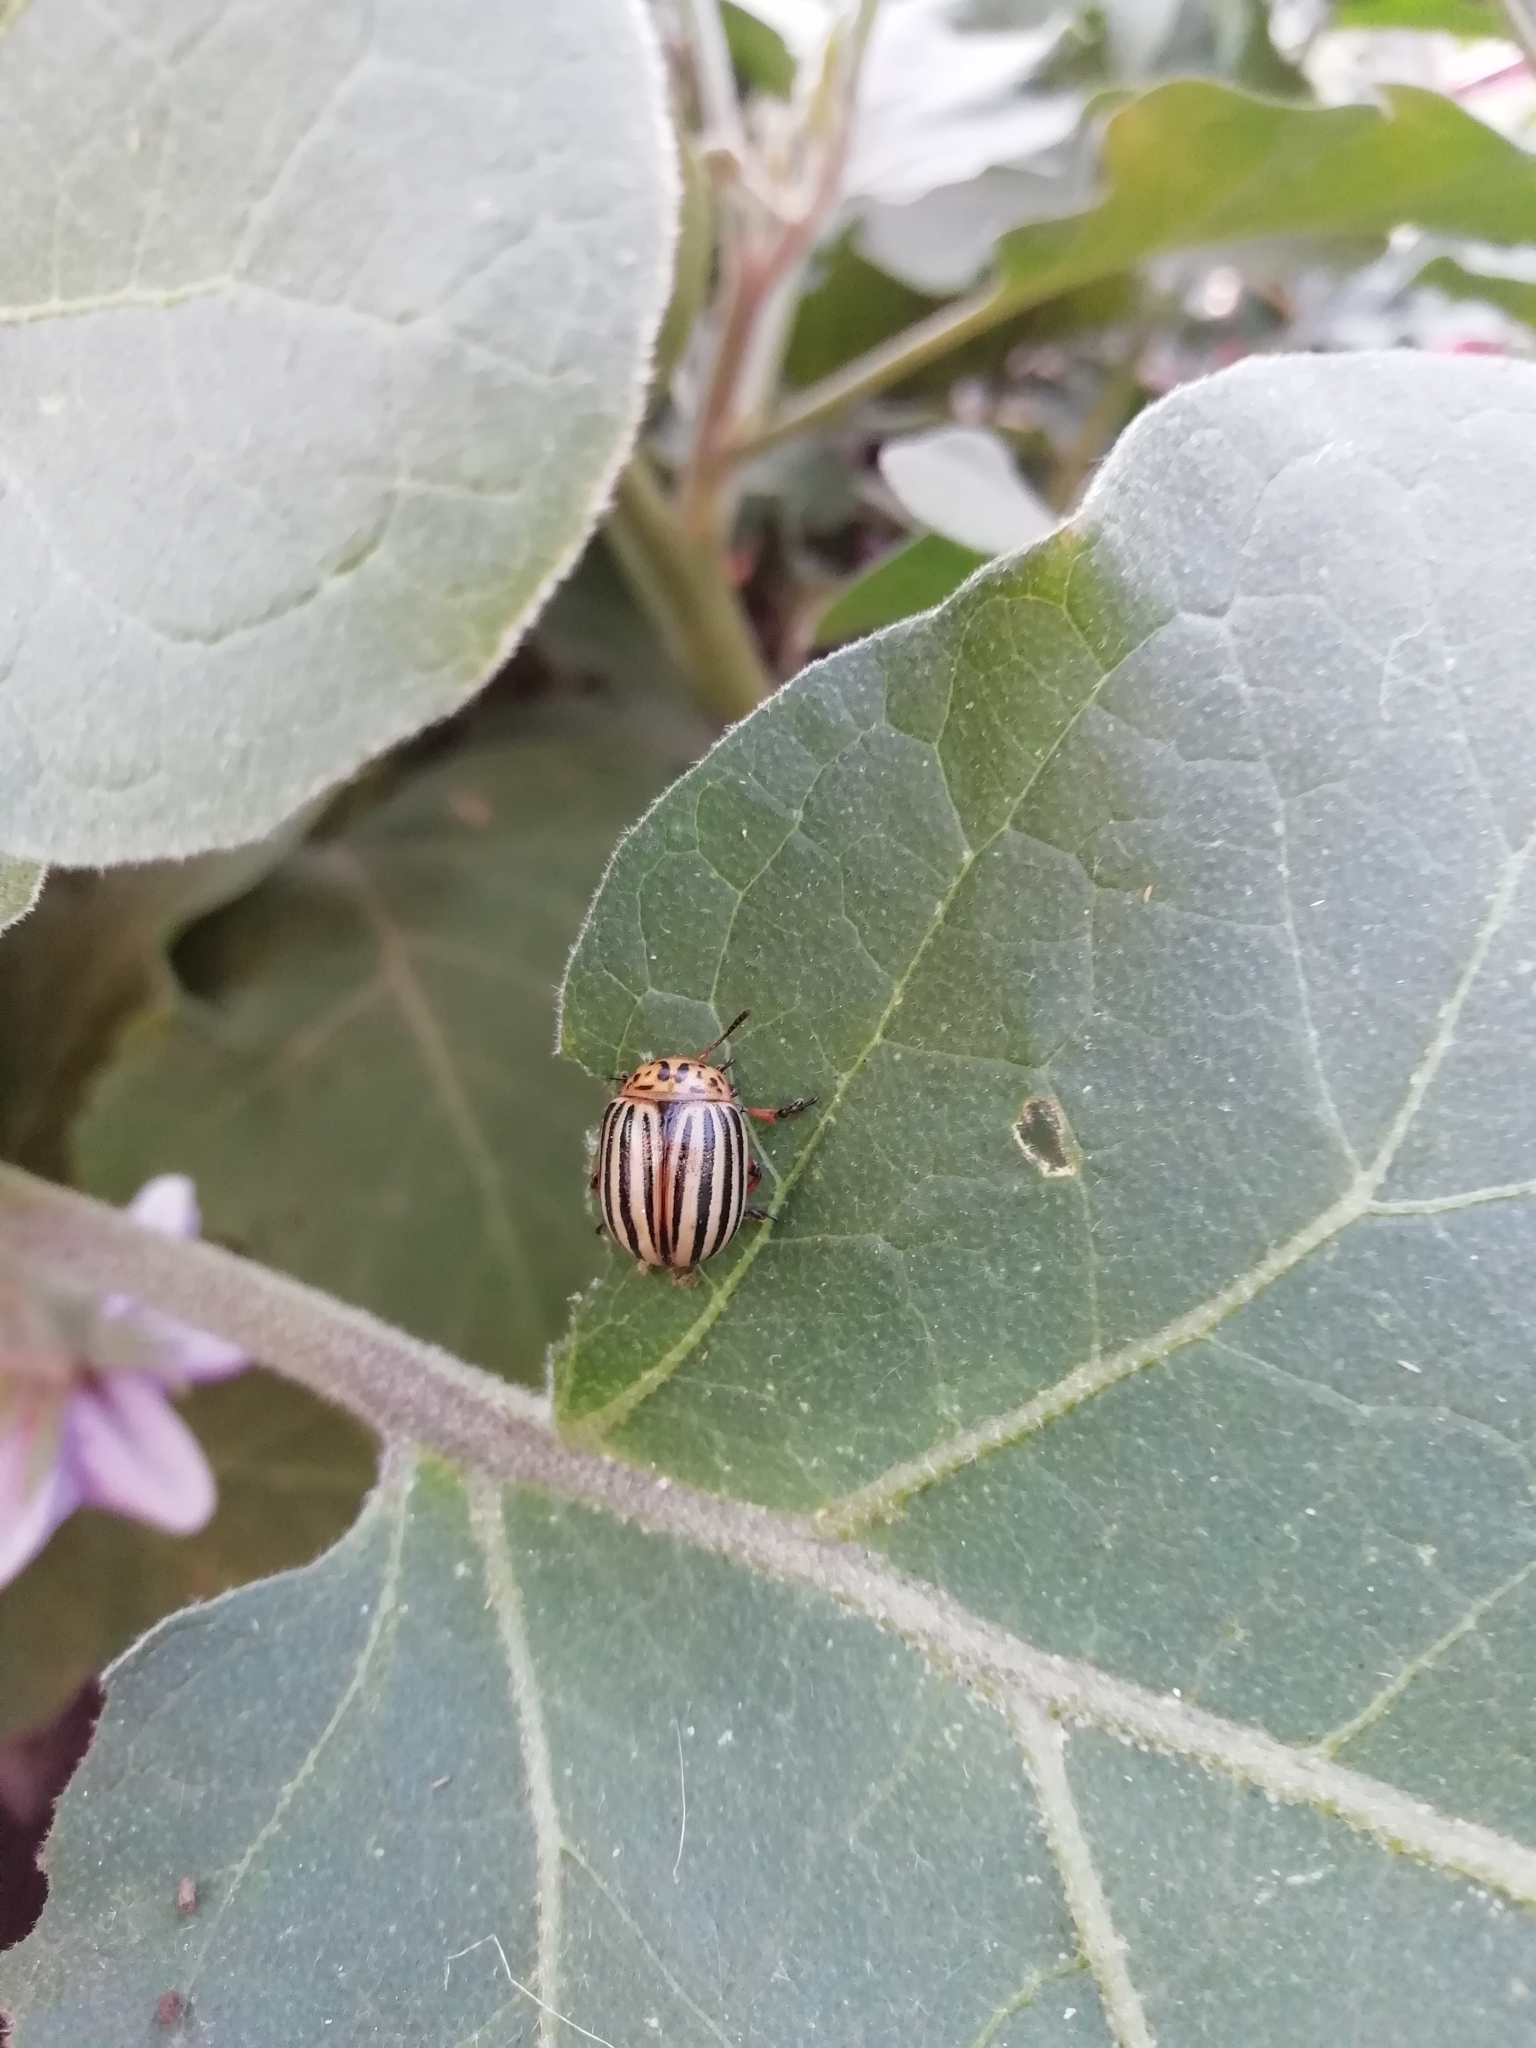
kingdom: Animalia
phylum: Arthropoda
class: Insecta
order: Coleoptera
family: Chrysomelidae
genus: Leptinotarsa
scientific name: Leptinotarsa decemlineata
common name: Colorado potato beetle
